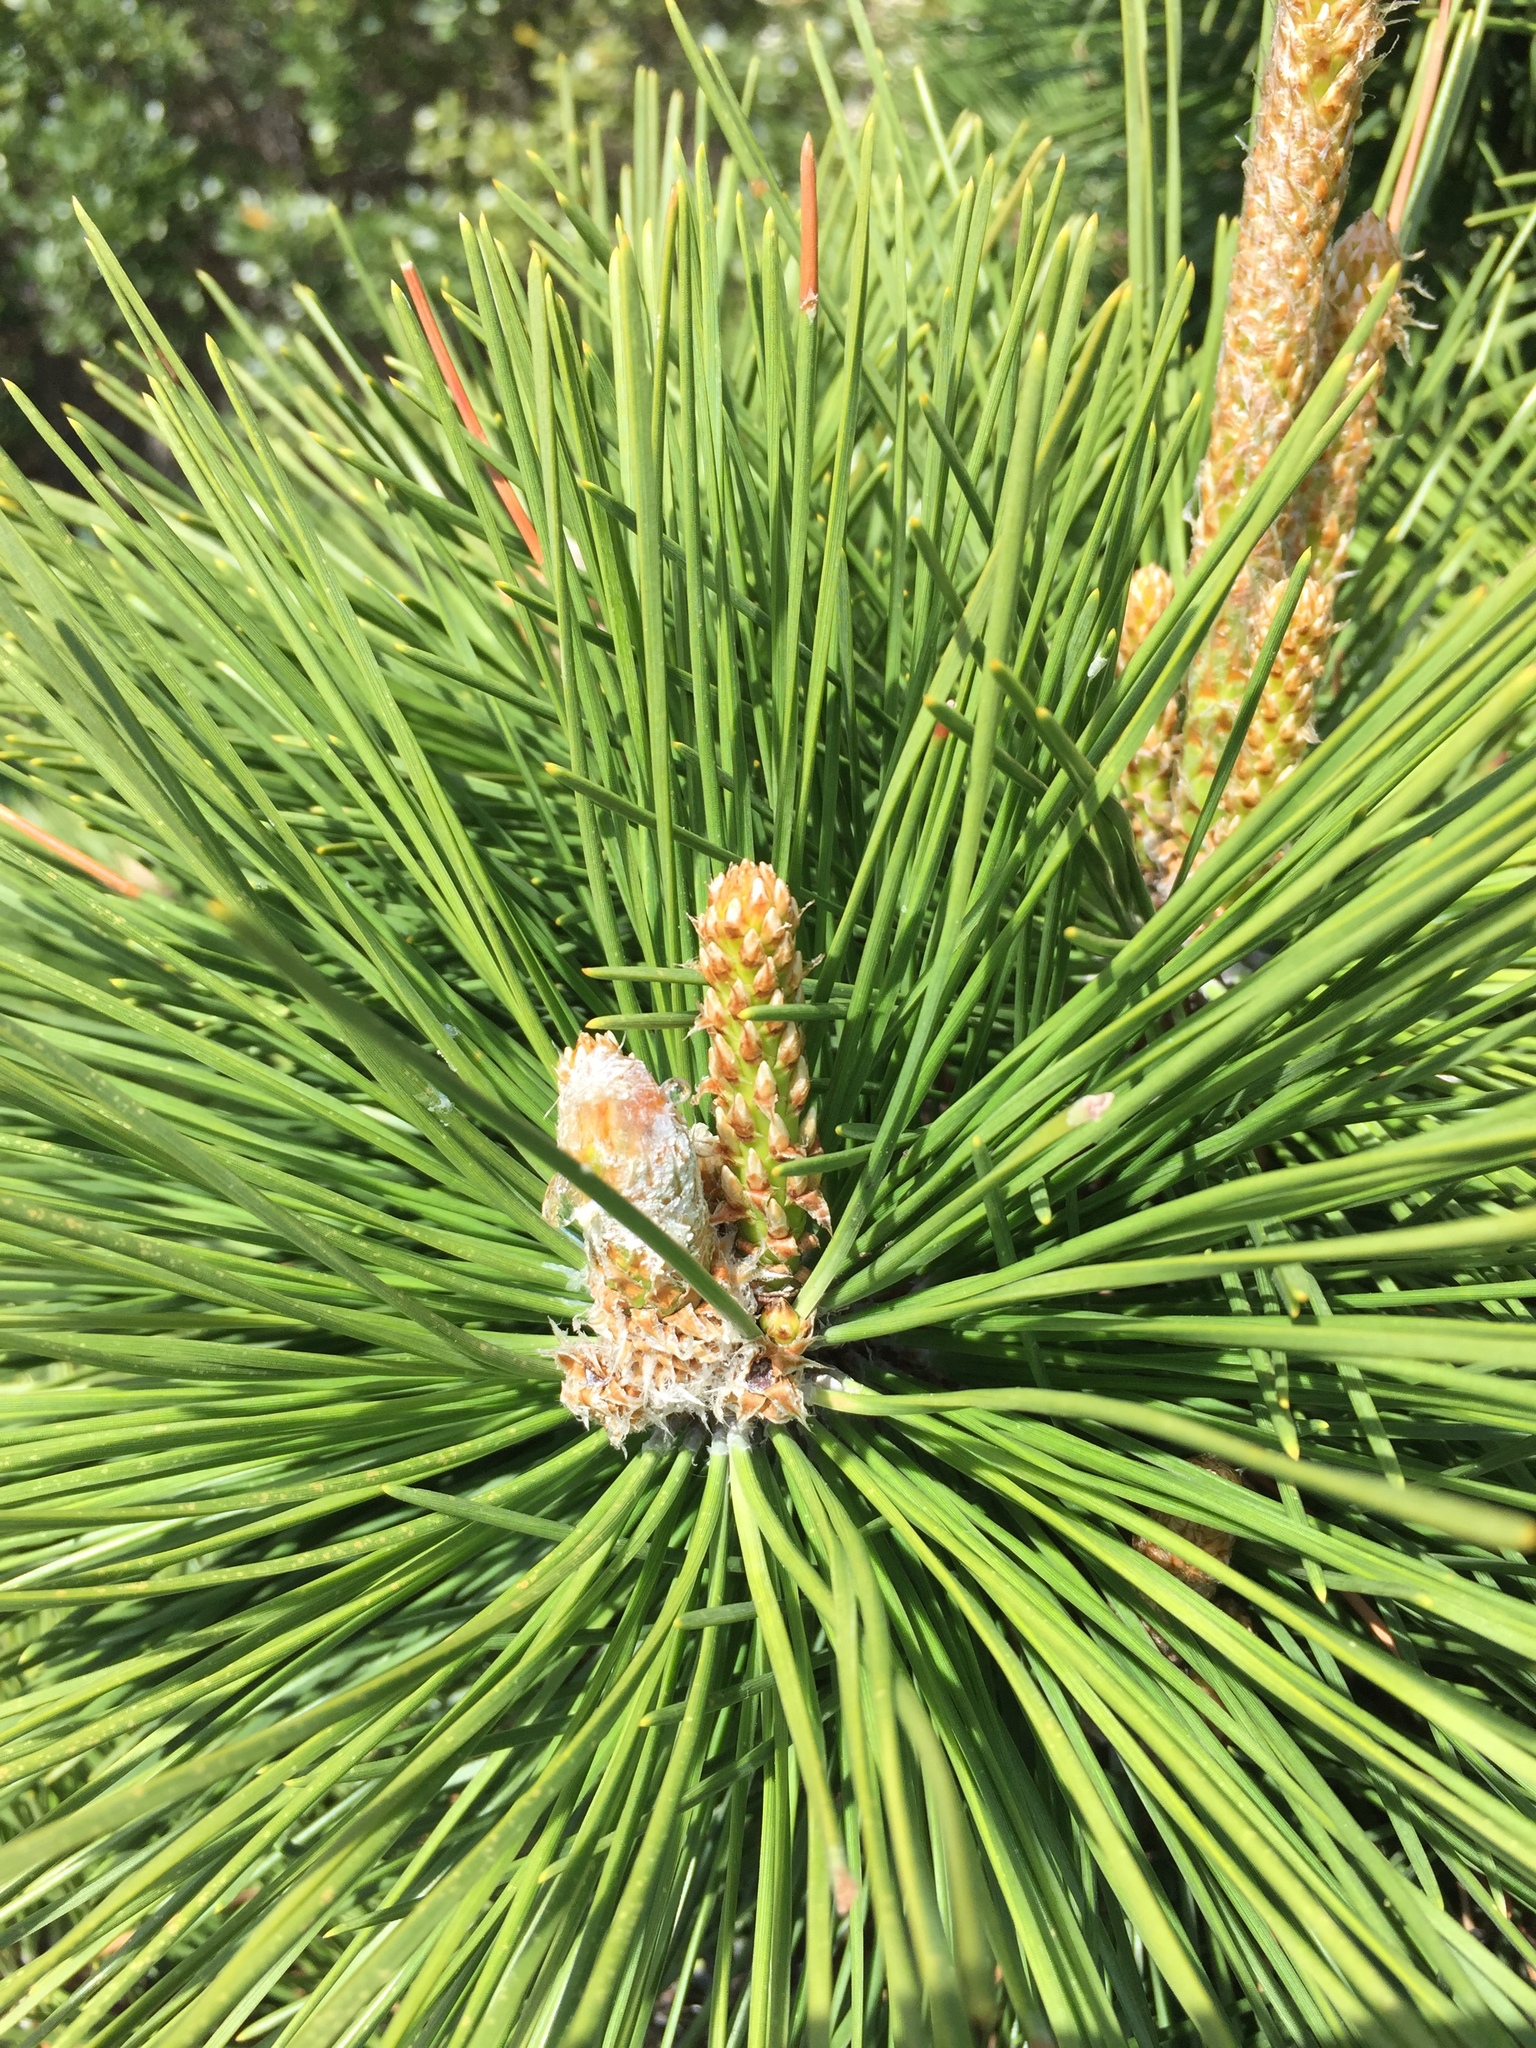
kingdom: Plantae
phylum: Tracheophyta
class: Pinopsida
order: Pinales
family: Pinaceae
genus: Pinus
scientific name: Pinus rigida
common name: Pitch pine
